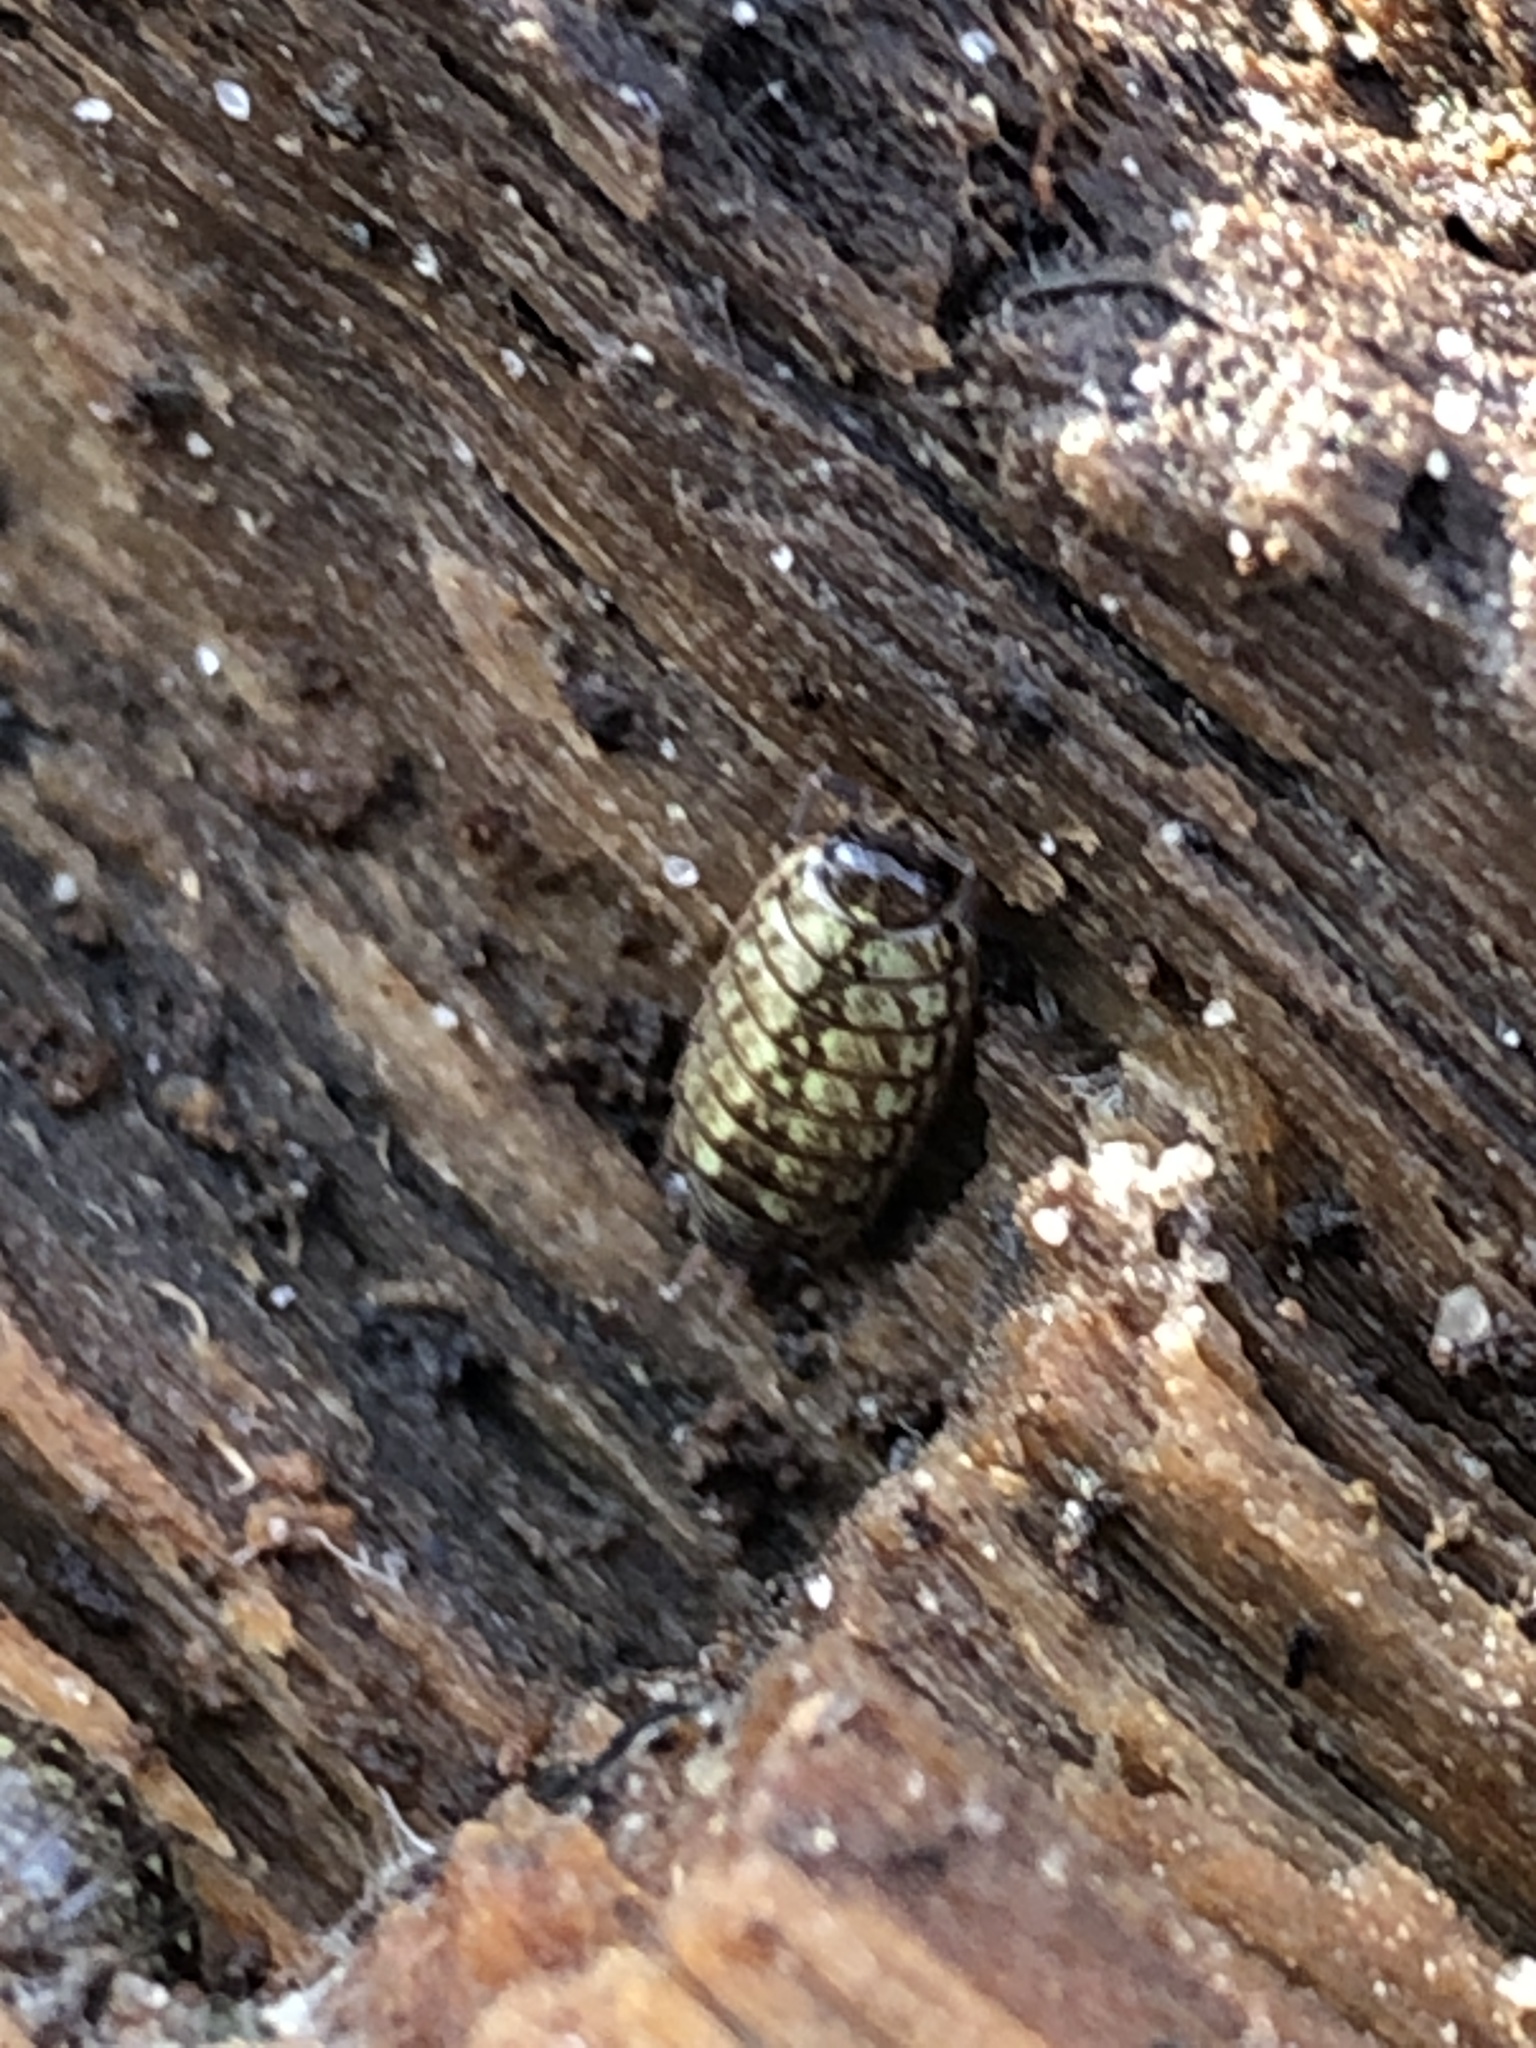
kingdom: Animalia
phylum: Arthropoda
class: Malacostraca
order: Isopoda
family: Philosciidae
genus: Philoscia
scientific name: Philoscia muscorum
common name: Common striped woodlouse
